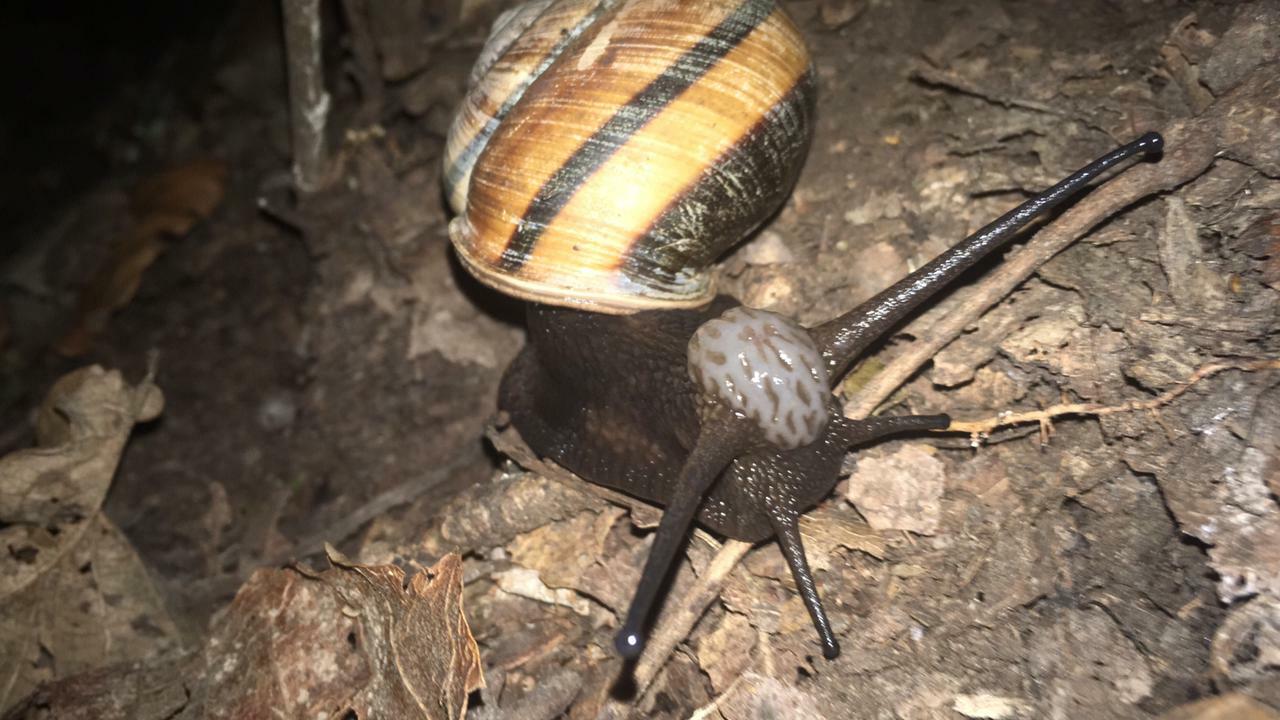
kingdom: Animalia
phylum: Mollusca
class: Gastropoda
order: Stylommatophora
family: Xanthonychidae
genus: Lysinoe
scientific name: Lysinoe ghiesbreghti
